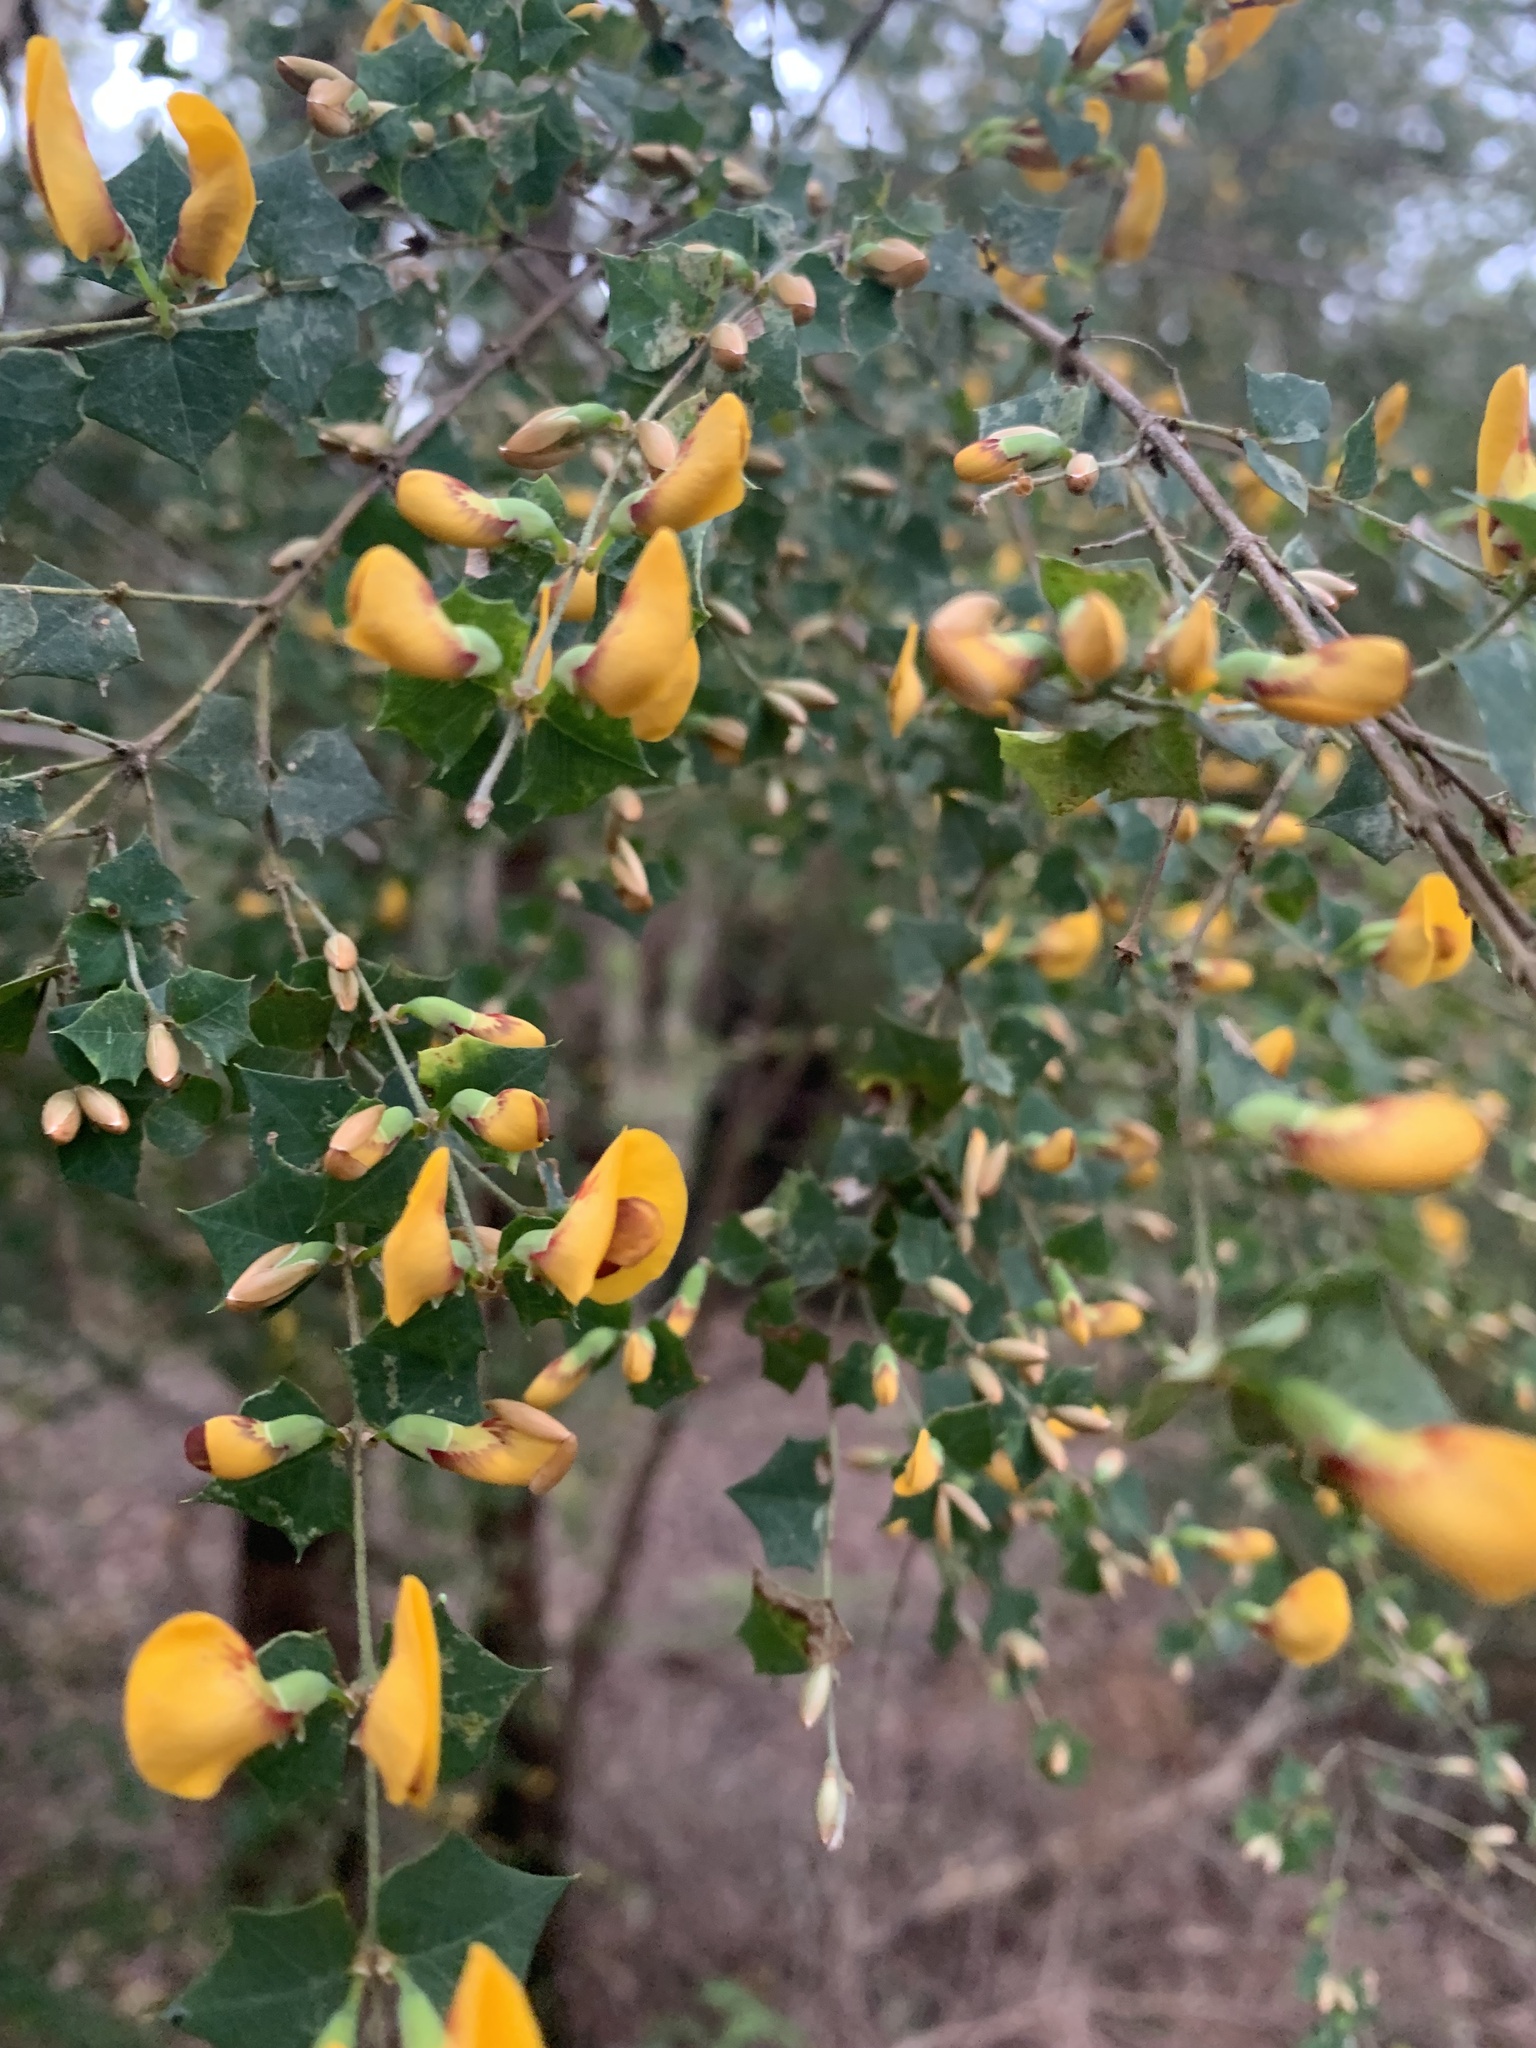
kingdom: Plantae
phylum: Tracheophyta
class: Magnoliopsida
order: Fabales
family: Fabaceae
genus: Bossiaea
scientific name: Bossiaea aquifolium
